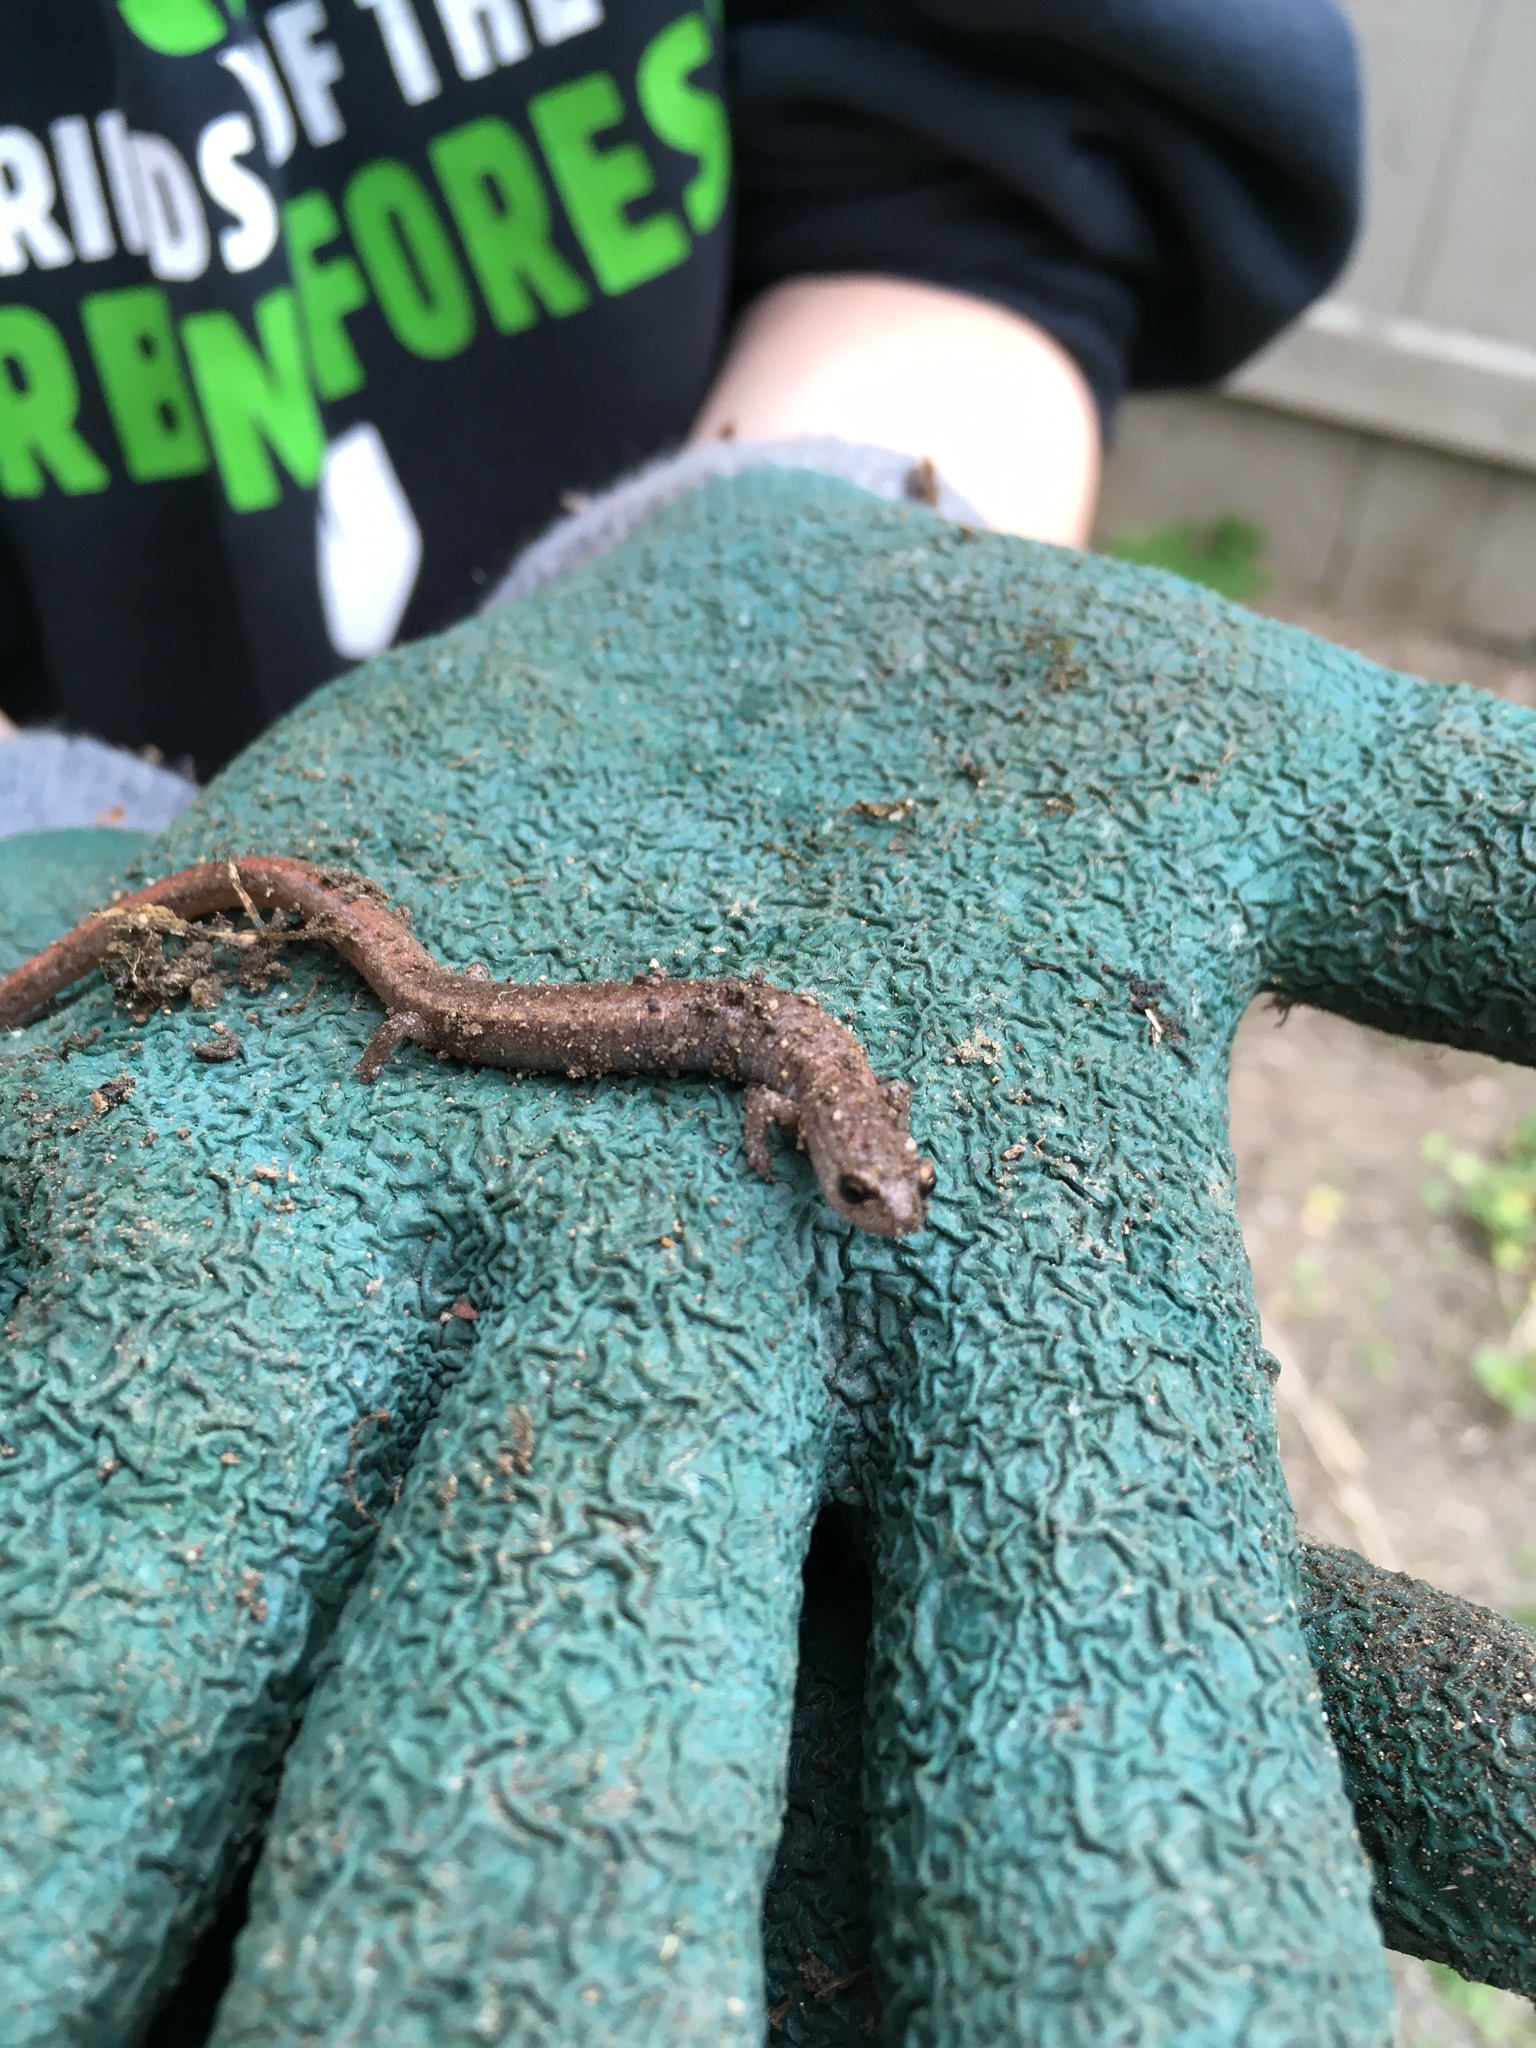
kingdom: Animalia
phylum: Chordata
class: Amphibia
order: Caudata
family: Plethodontidae
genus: Batrachoseps
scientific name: Batrachoseps major
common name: Garden slender salamander
